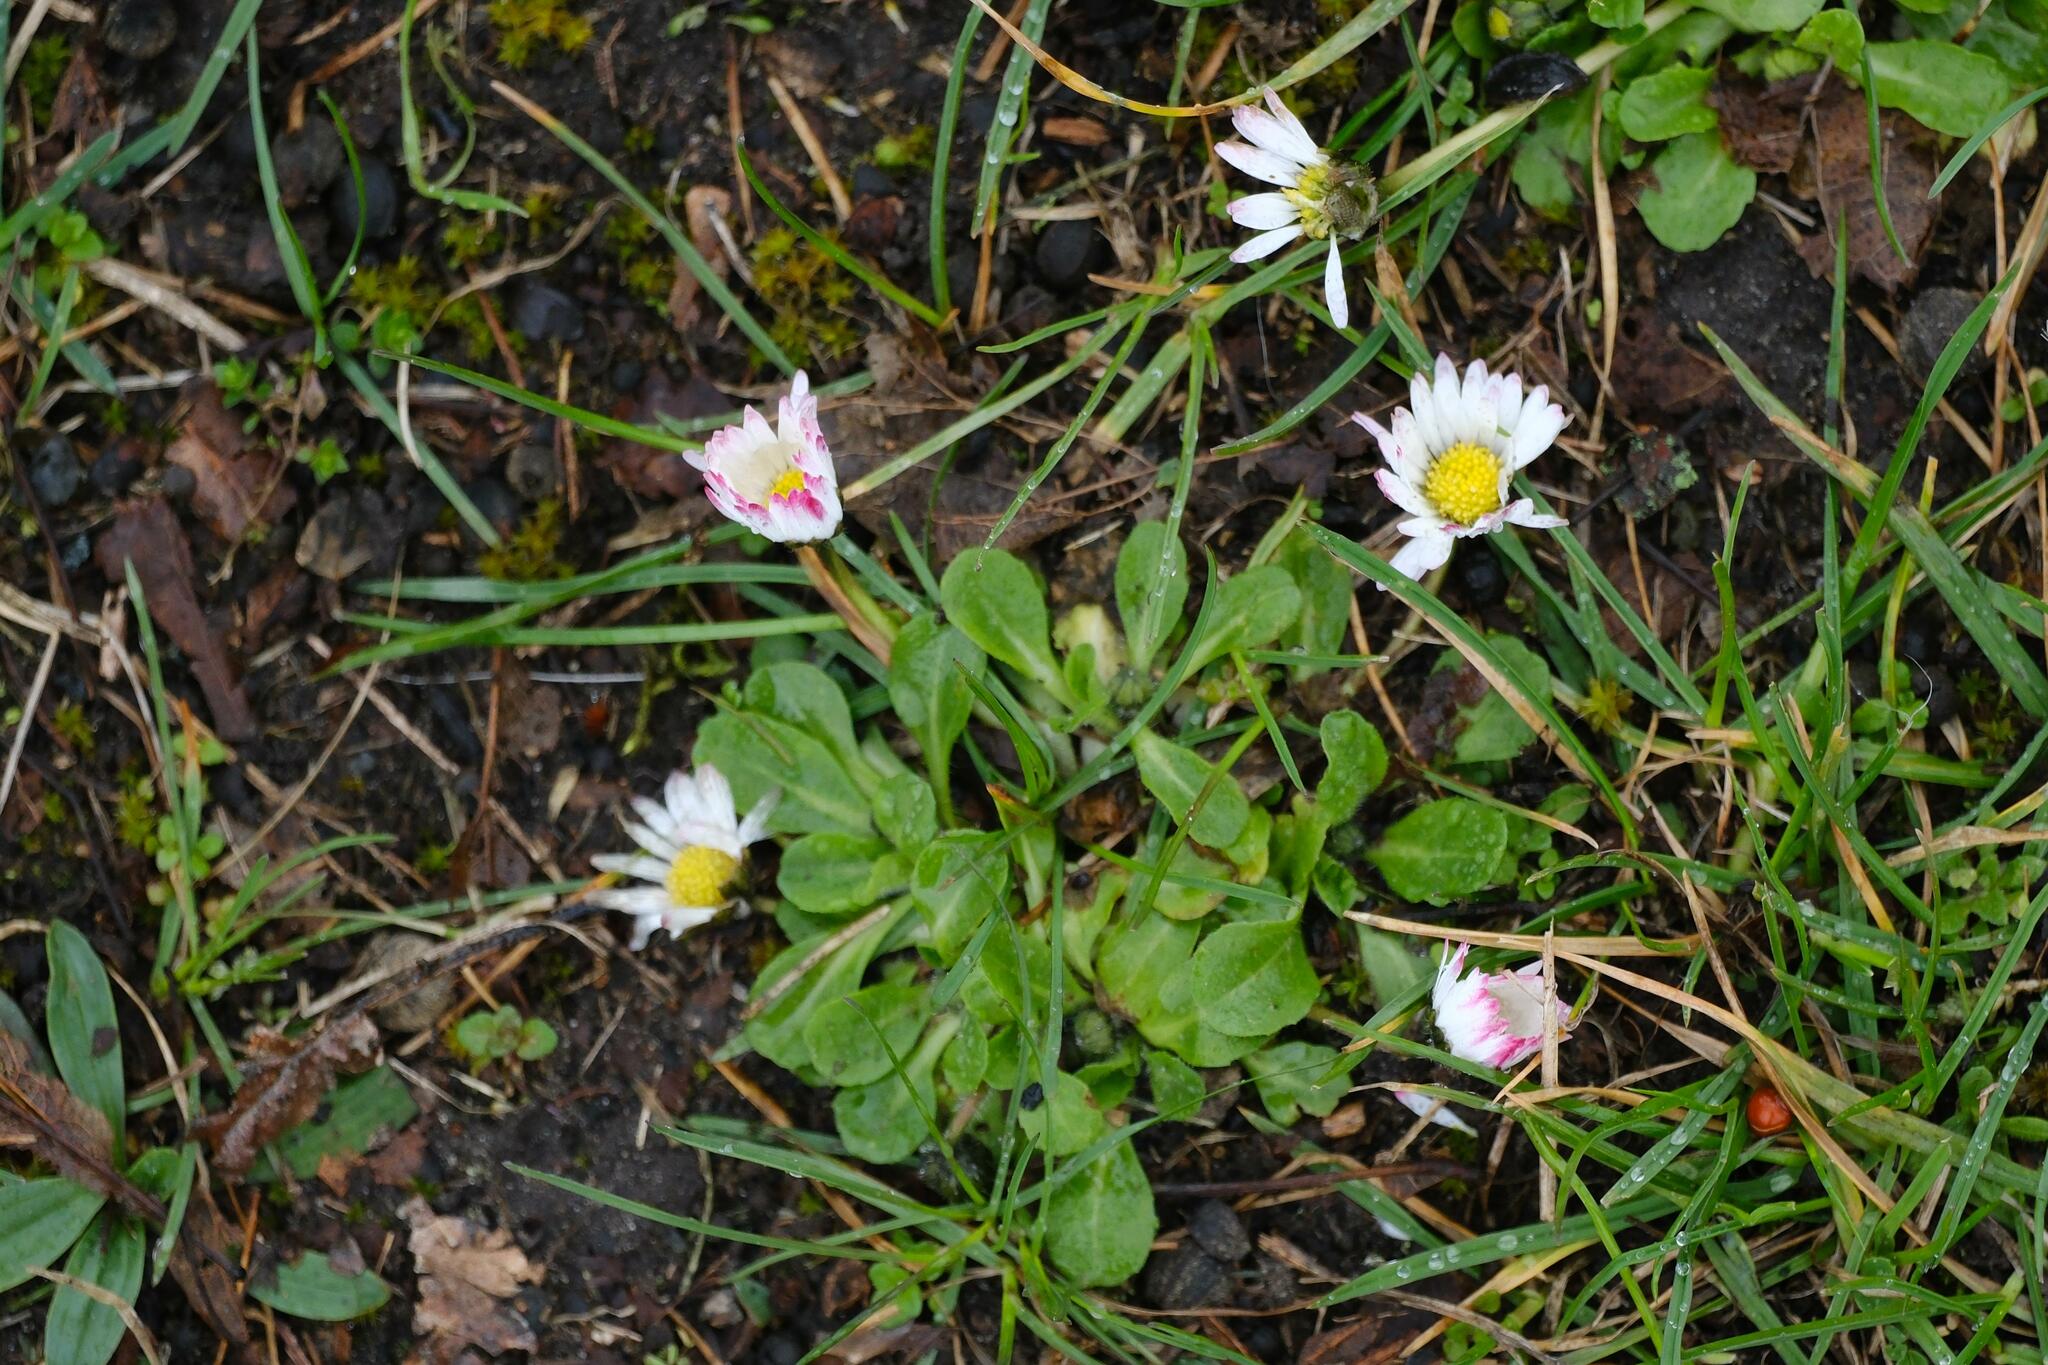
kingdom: Plantae
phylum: Tracheophyta
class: Magnoliopsida
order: Asterales
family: Asteraceae
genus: Bellis
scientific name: Bellis perennis
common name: Lawndaisy
